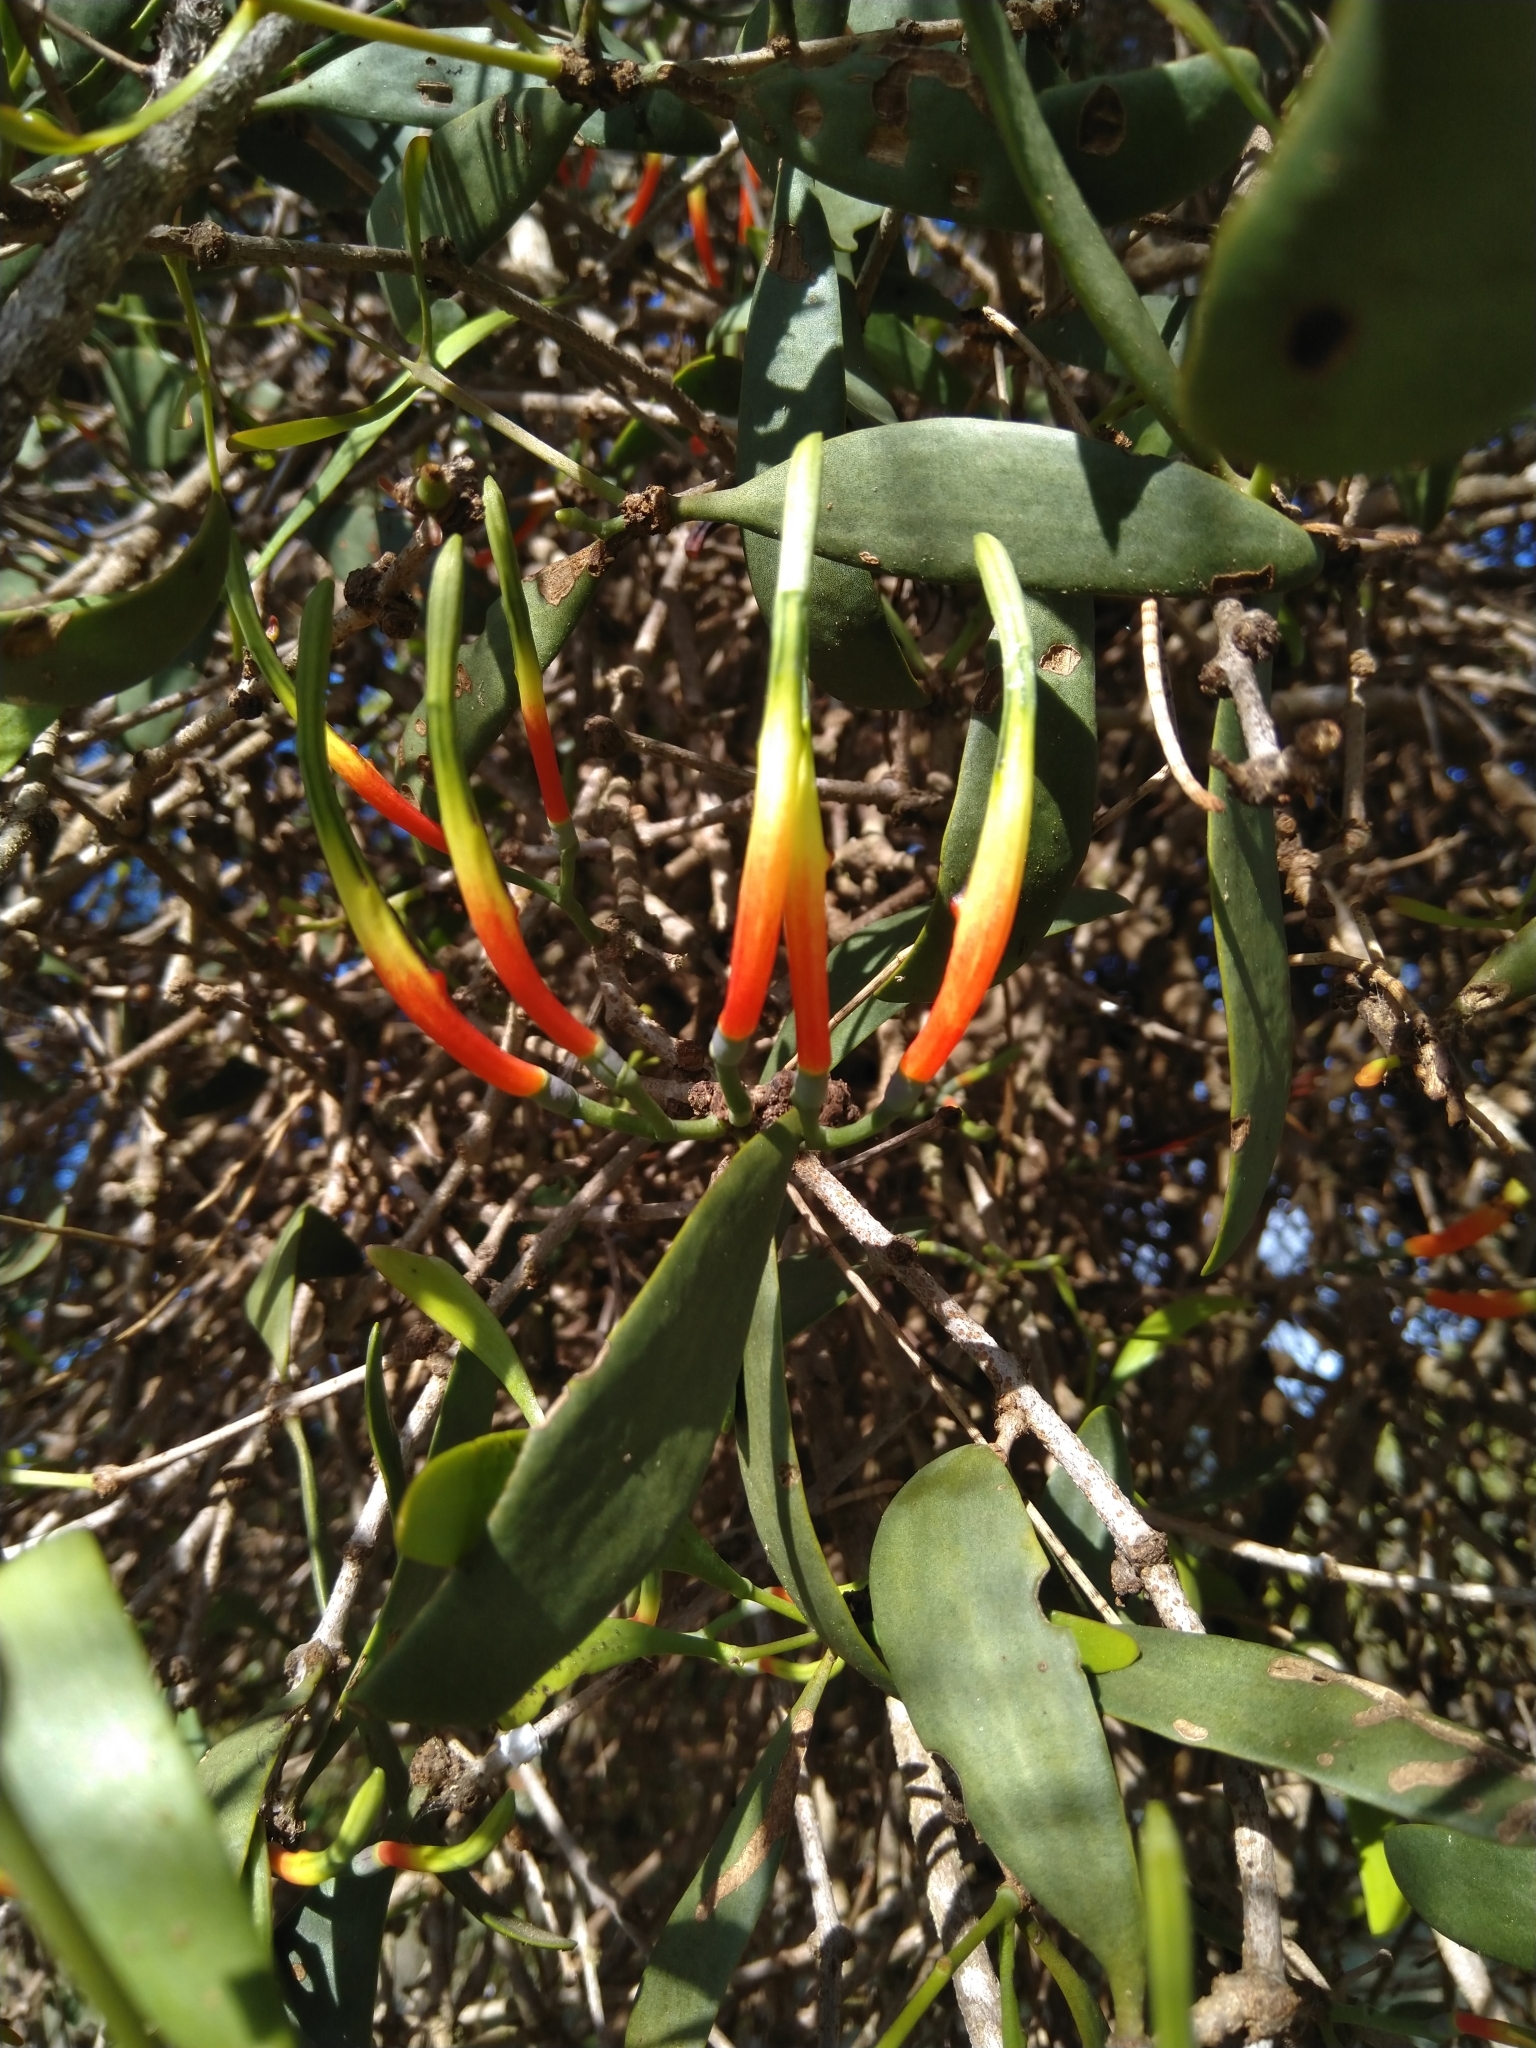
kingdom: Plantae
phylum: Tracheophyta
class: Magnoliopsida
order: Santalales
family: Loranthaceae
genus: Lysiana
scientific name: Lysiana subfalcata
